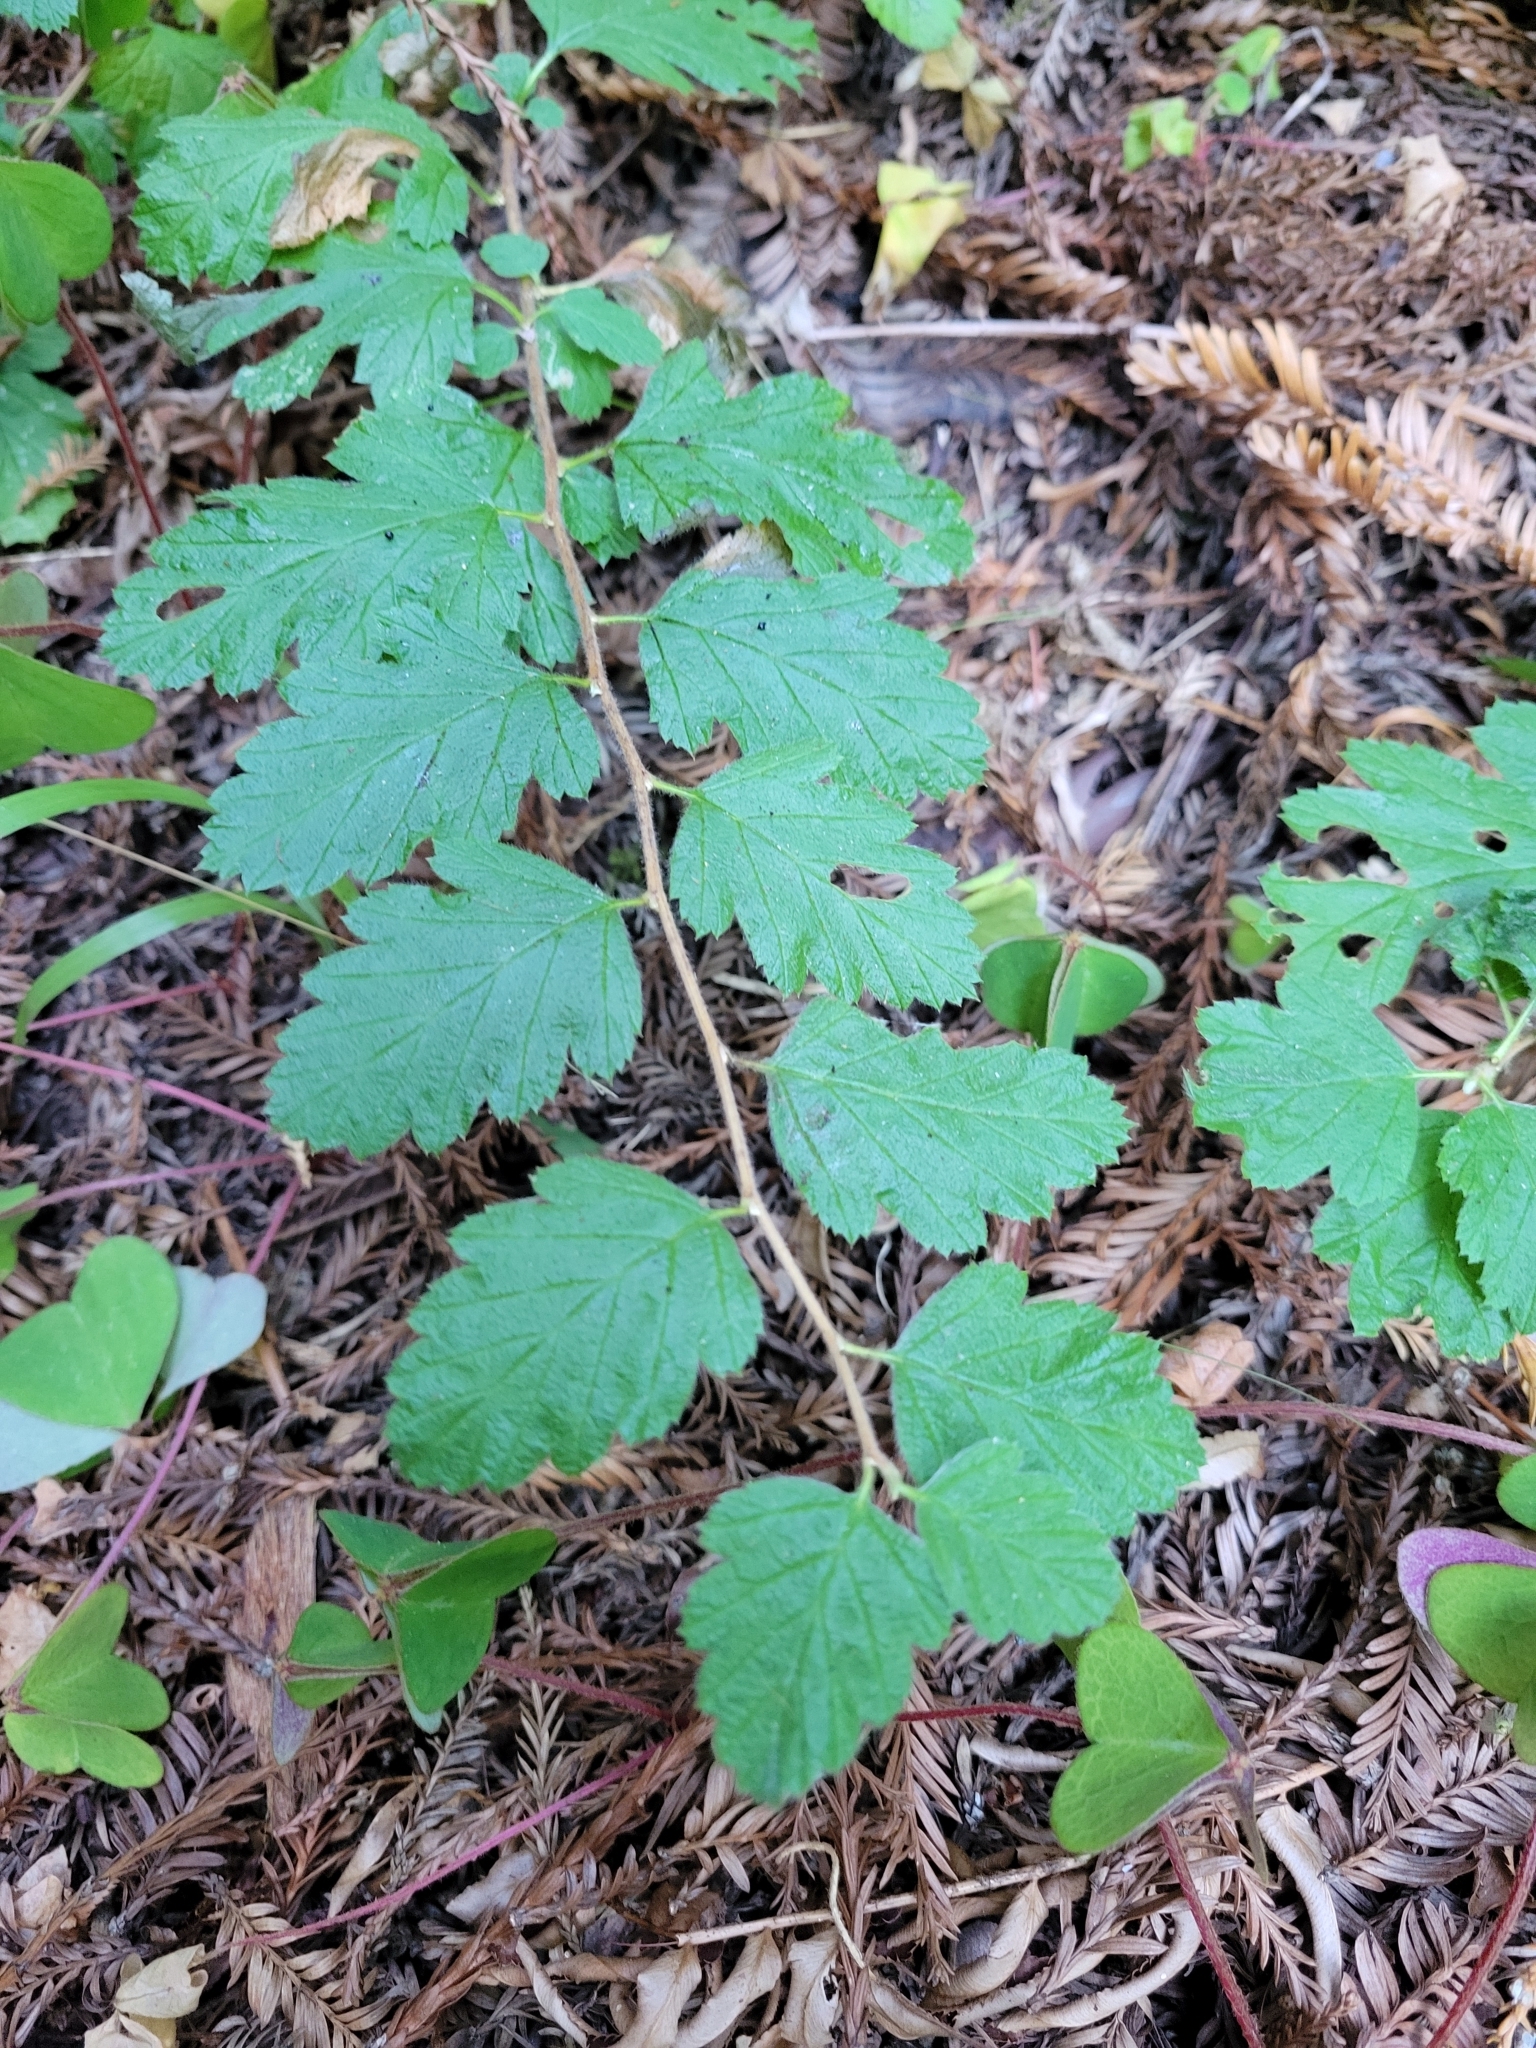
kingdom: Plantae
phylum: Tracheophyta
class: Magnoliopsida
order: Rosales
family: Rosaceae
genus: Holodiscus
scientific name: Holodiscus discolor
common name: Oceanspray
